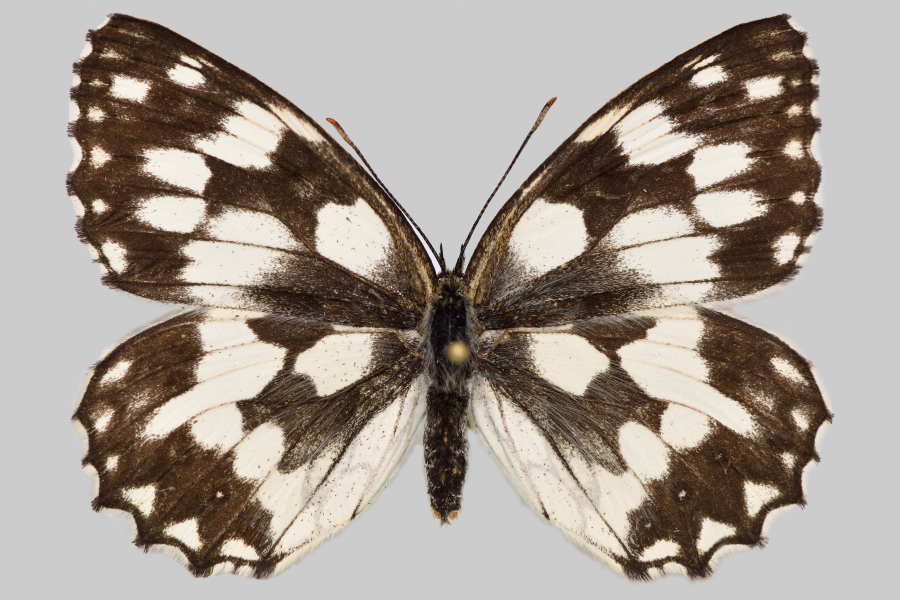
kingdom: Animalia
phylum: Arthropoda
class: Insecta
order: Lepidoptera
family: Nymphalidae
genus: Melanargia
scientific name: Melanargia galathea
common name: Marbled white
